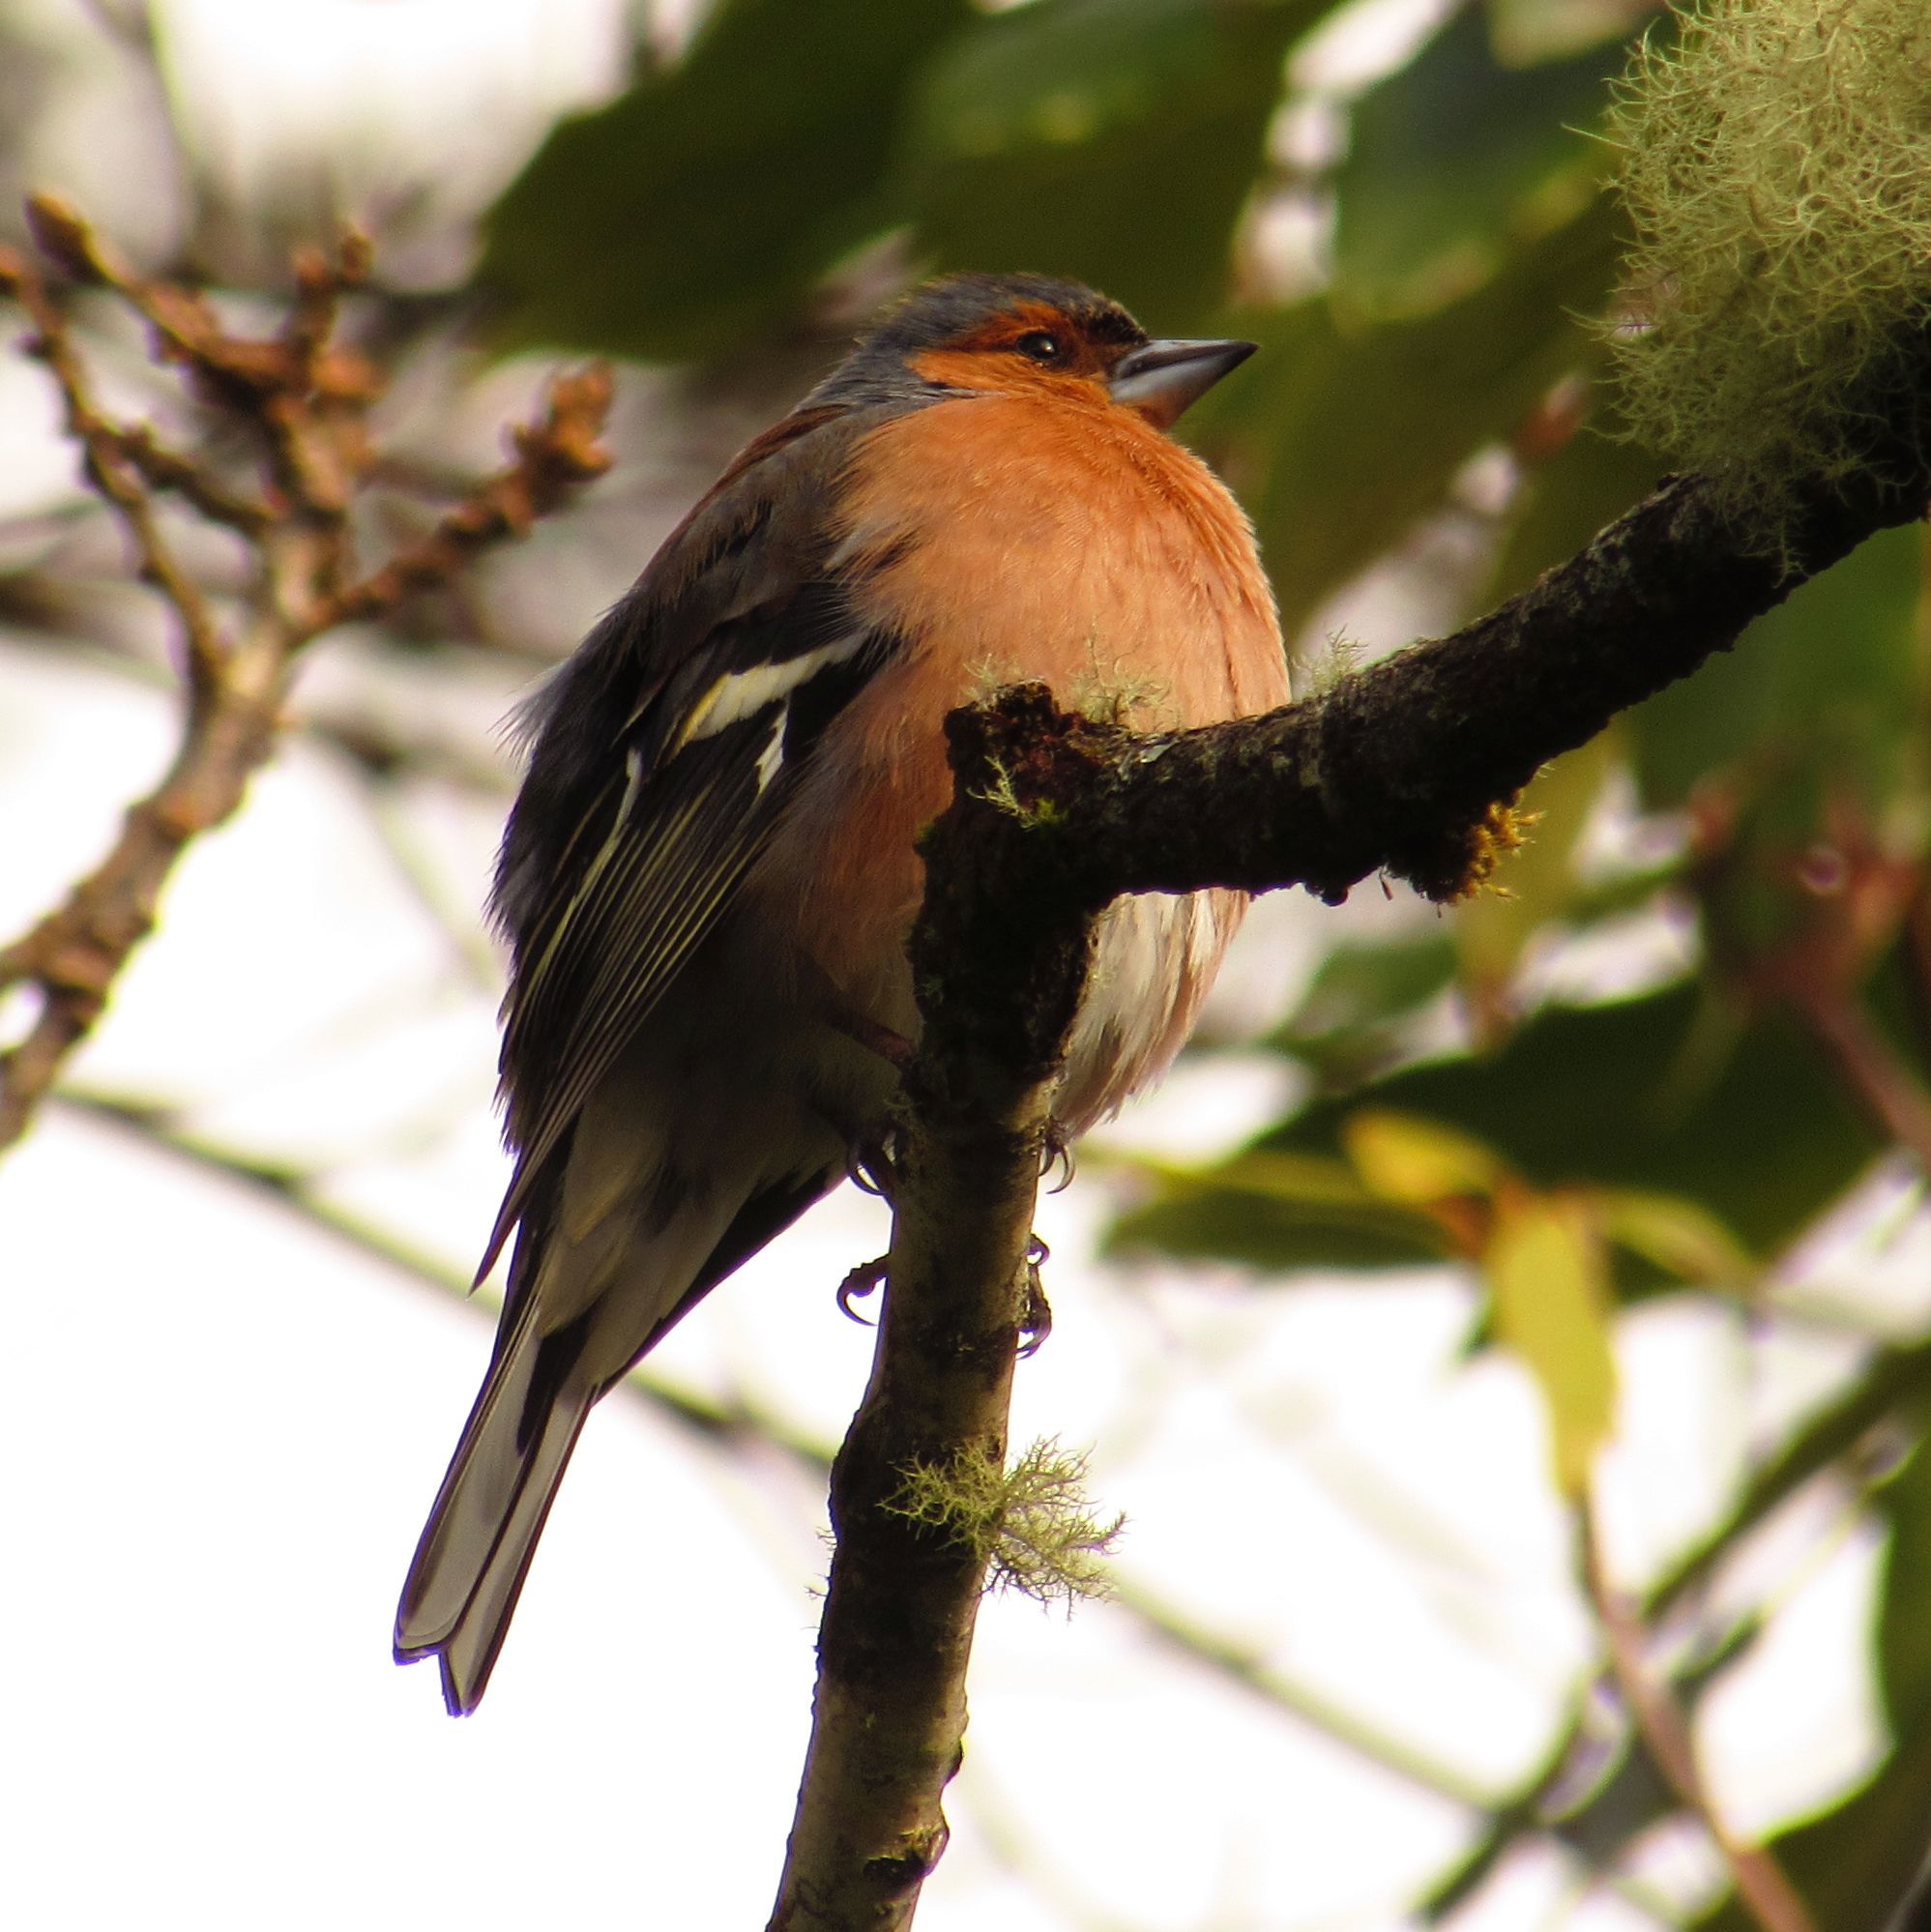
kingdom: Animalia
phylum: Chordata
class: Aves
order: Passeriformes
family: Fringillidae
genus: Fringilla
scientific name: Fringilla coelebs
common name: Common chaffinch
